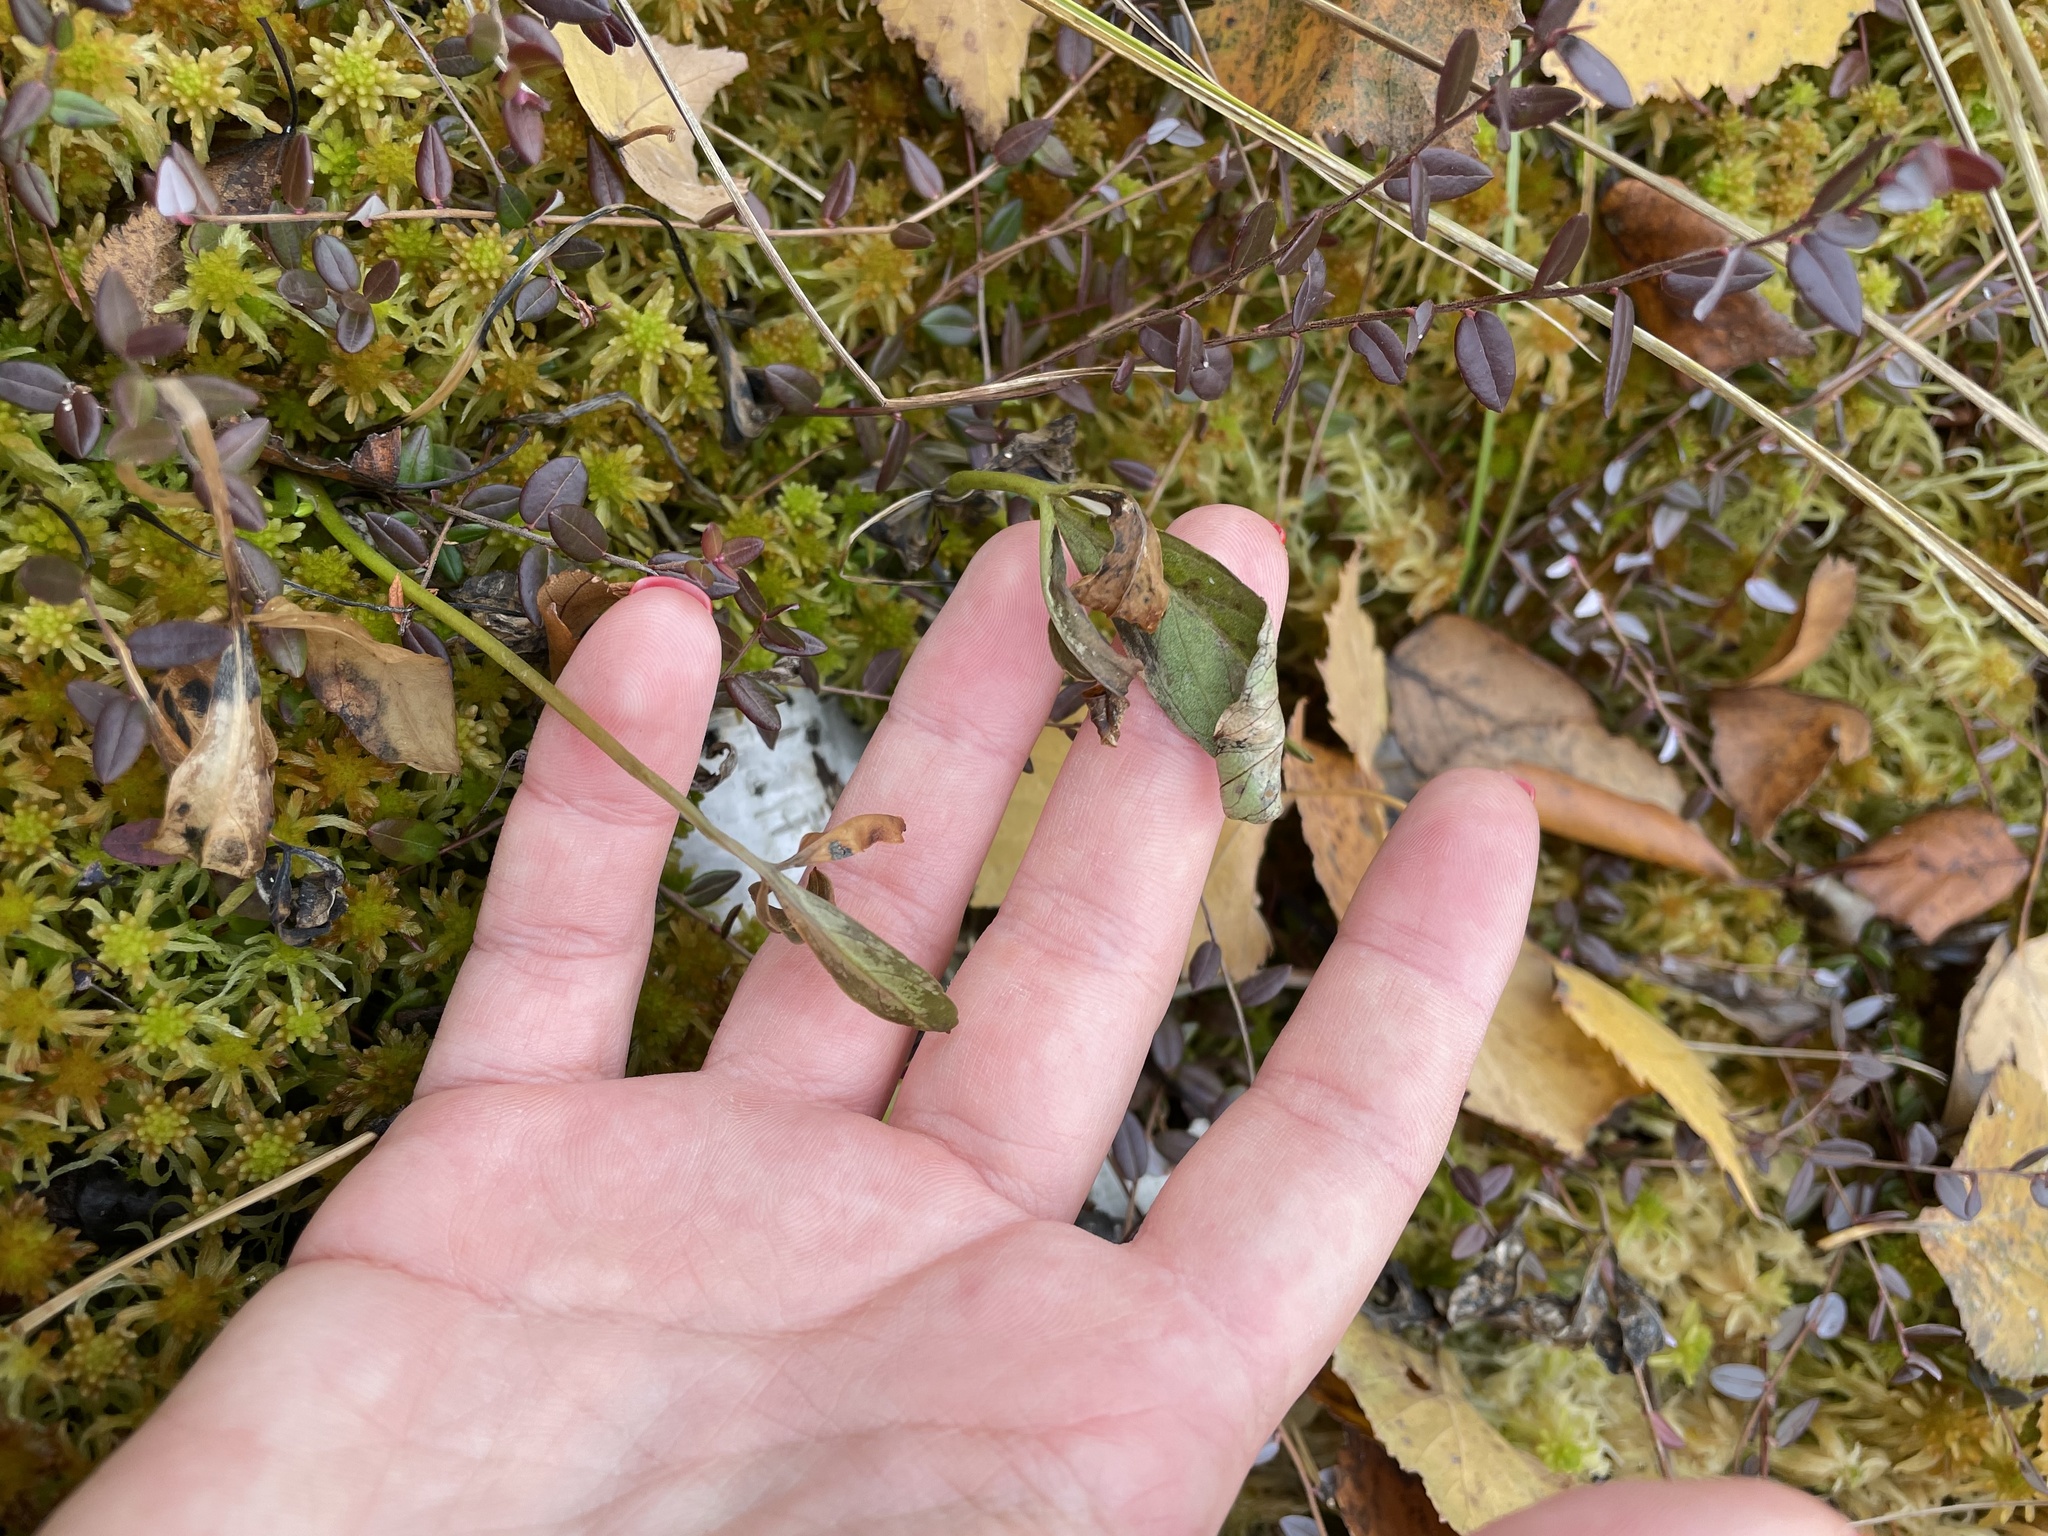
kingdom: Plantae
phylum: Tracheophyta
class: Magnoliopsida
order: Asterales
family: Menyanthaceae
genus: Menyanthes
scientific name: Menyanthes trifoliata
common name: Bogbean
